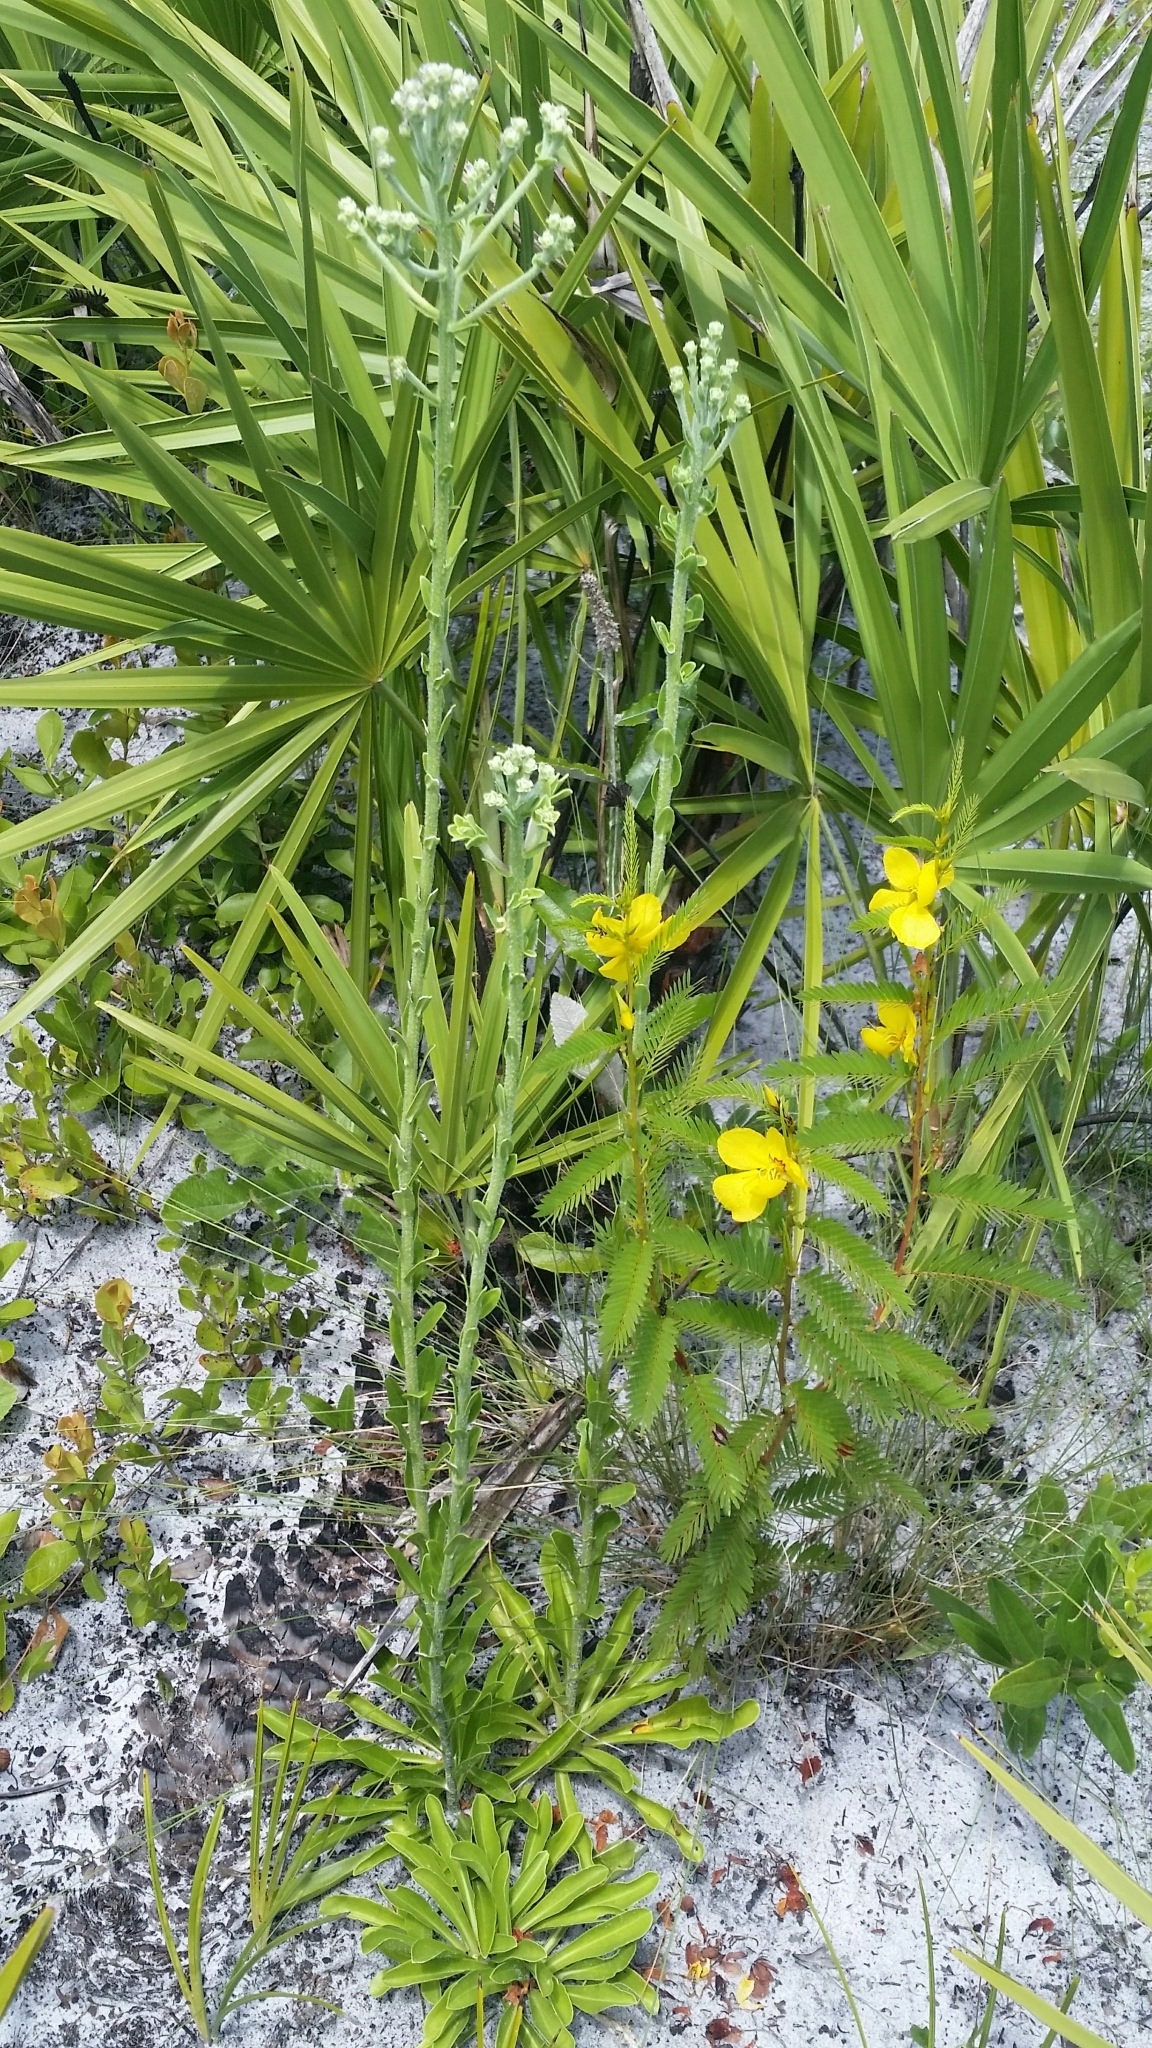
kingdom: Plantae
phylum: Tracheophyta
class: Magnoliopsida
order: Asterales
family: Asteraceae
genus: Carphephorus
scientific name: Carphephorus corymbosus
